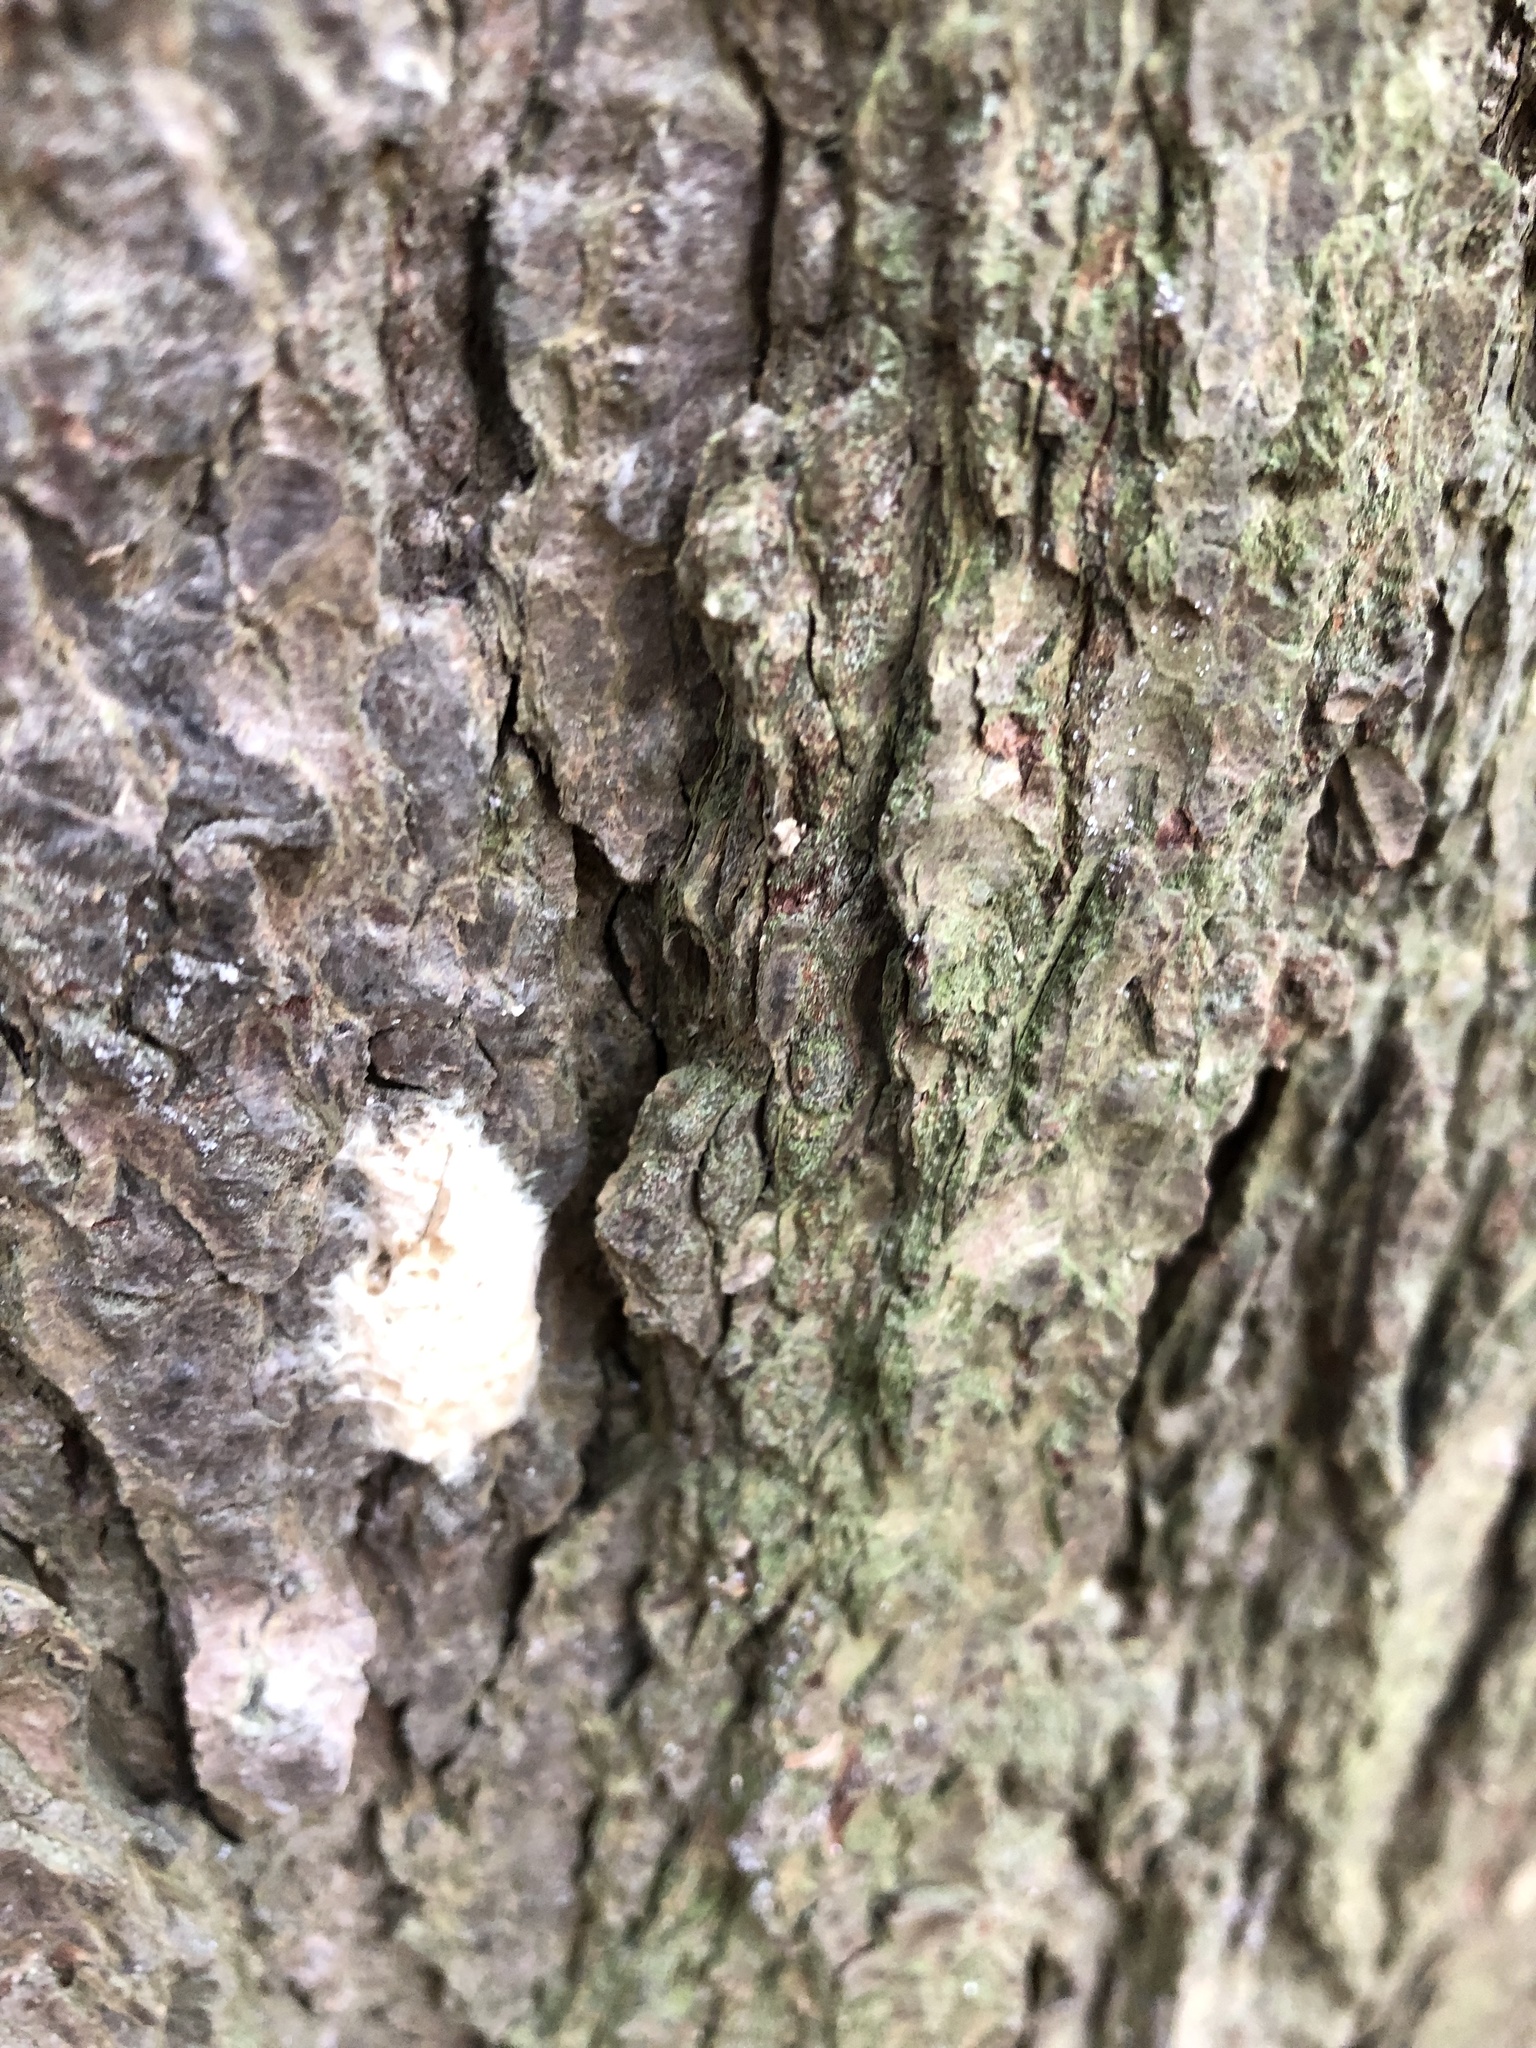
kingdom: Animalia
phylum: Arthropoda
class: Insecta
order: Lepidoptera
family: Erebidae
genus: Lymantria
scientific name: Lymantria dispar
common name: Gypsy moth
